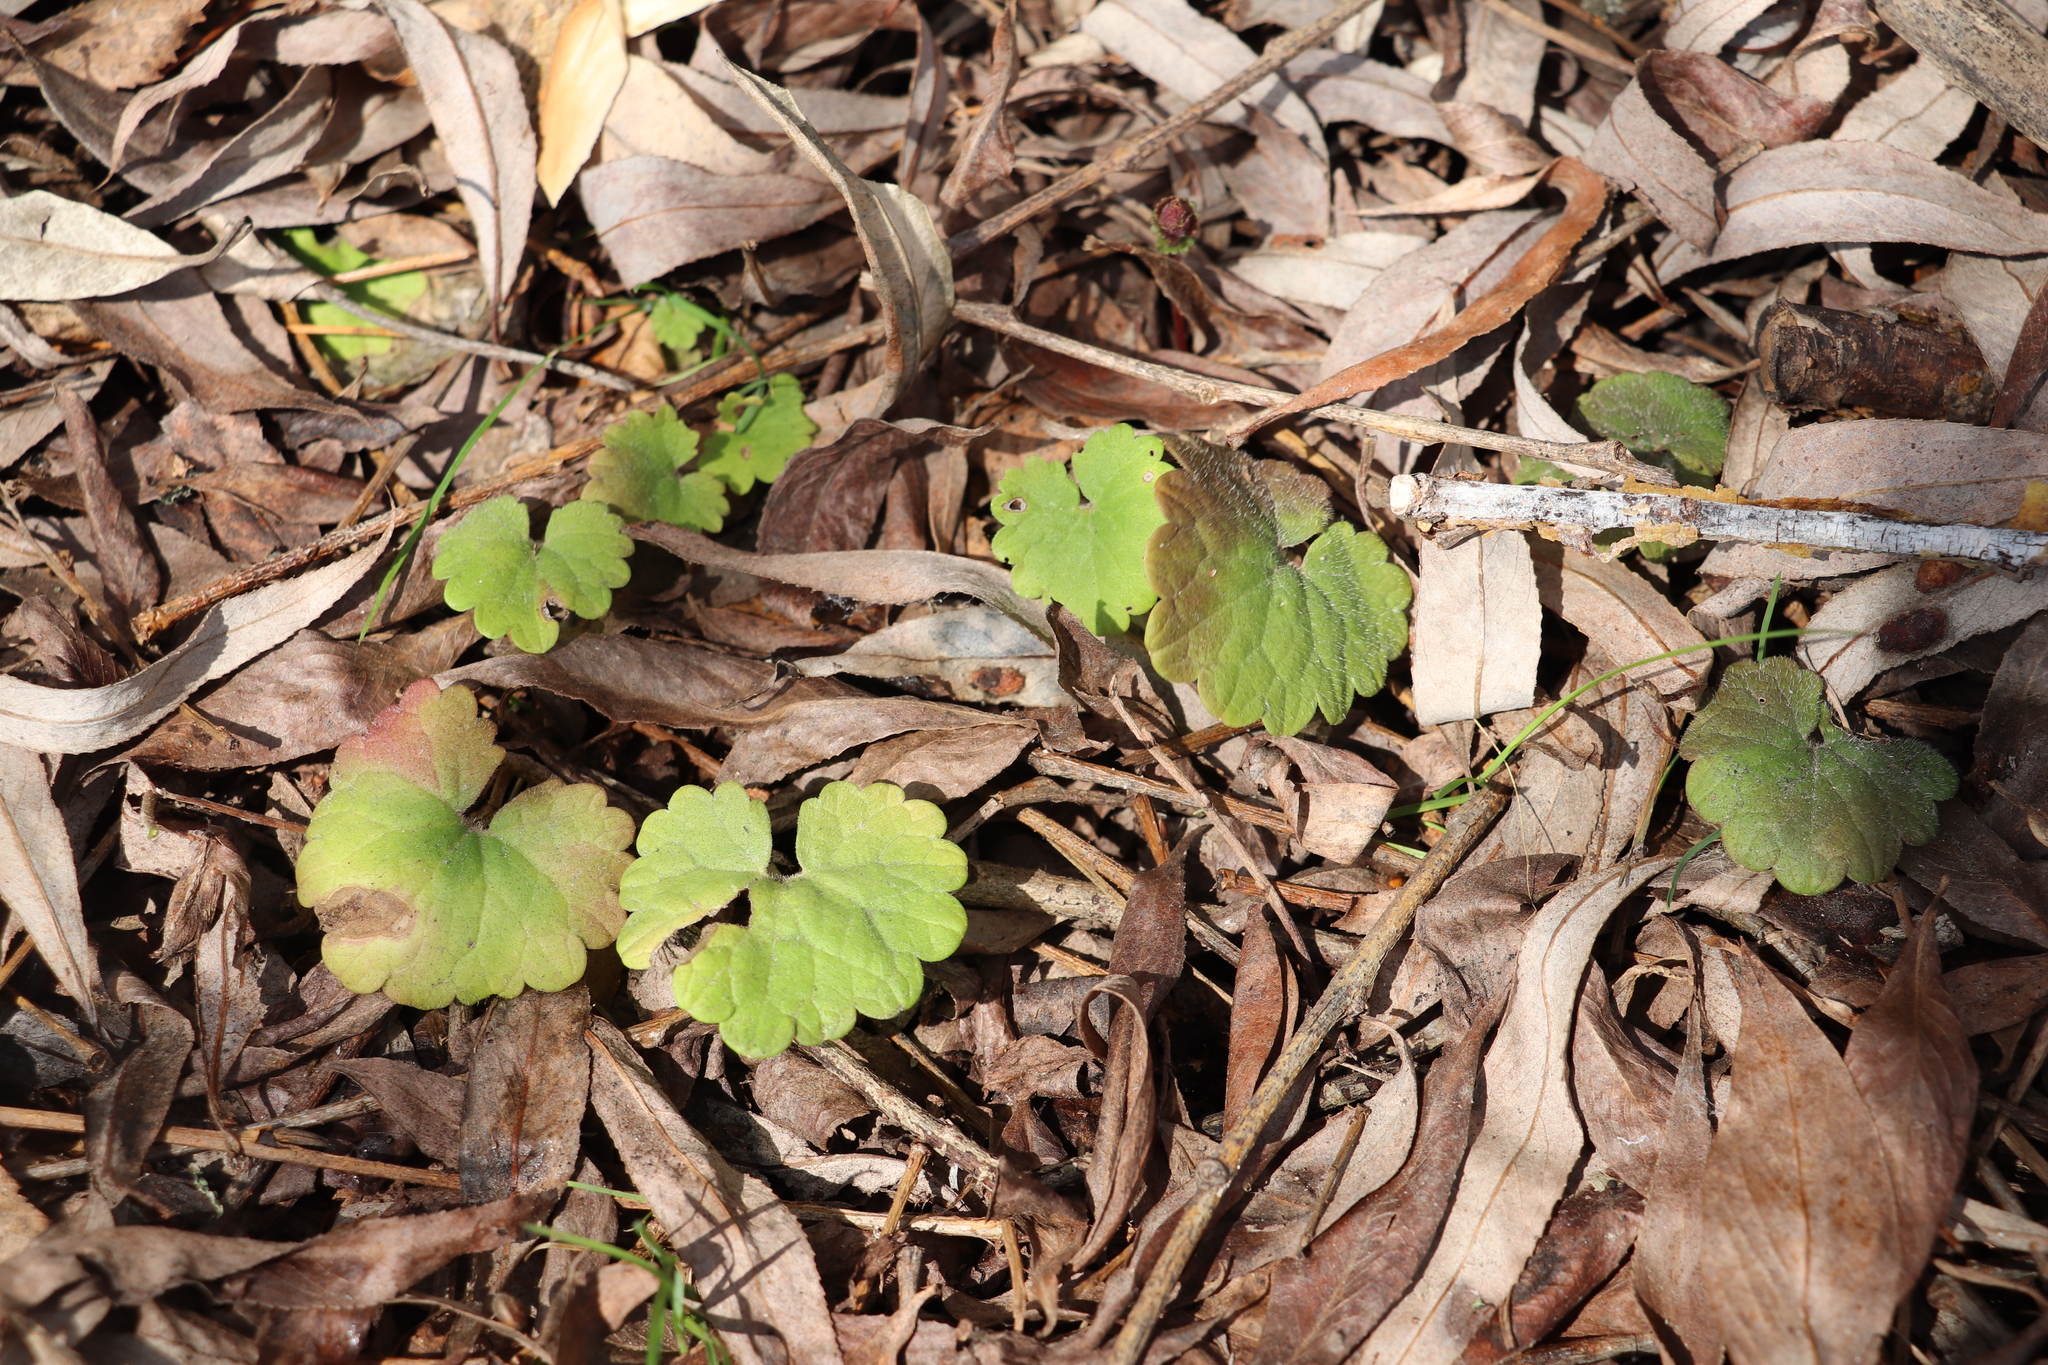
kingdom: Plantae
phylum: Tracheophyta
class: Magnoliopsida
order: Lamiales
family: Lamiaceae
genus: Glechoma
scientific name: Glechoma hederacea
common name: Ground ivy
